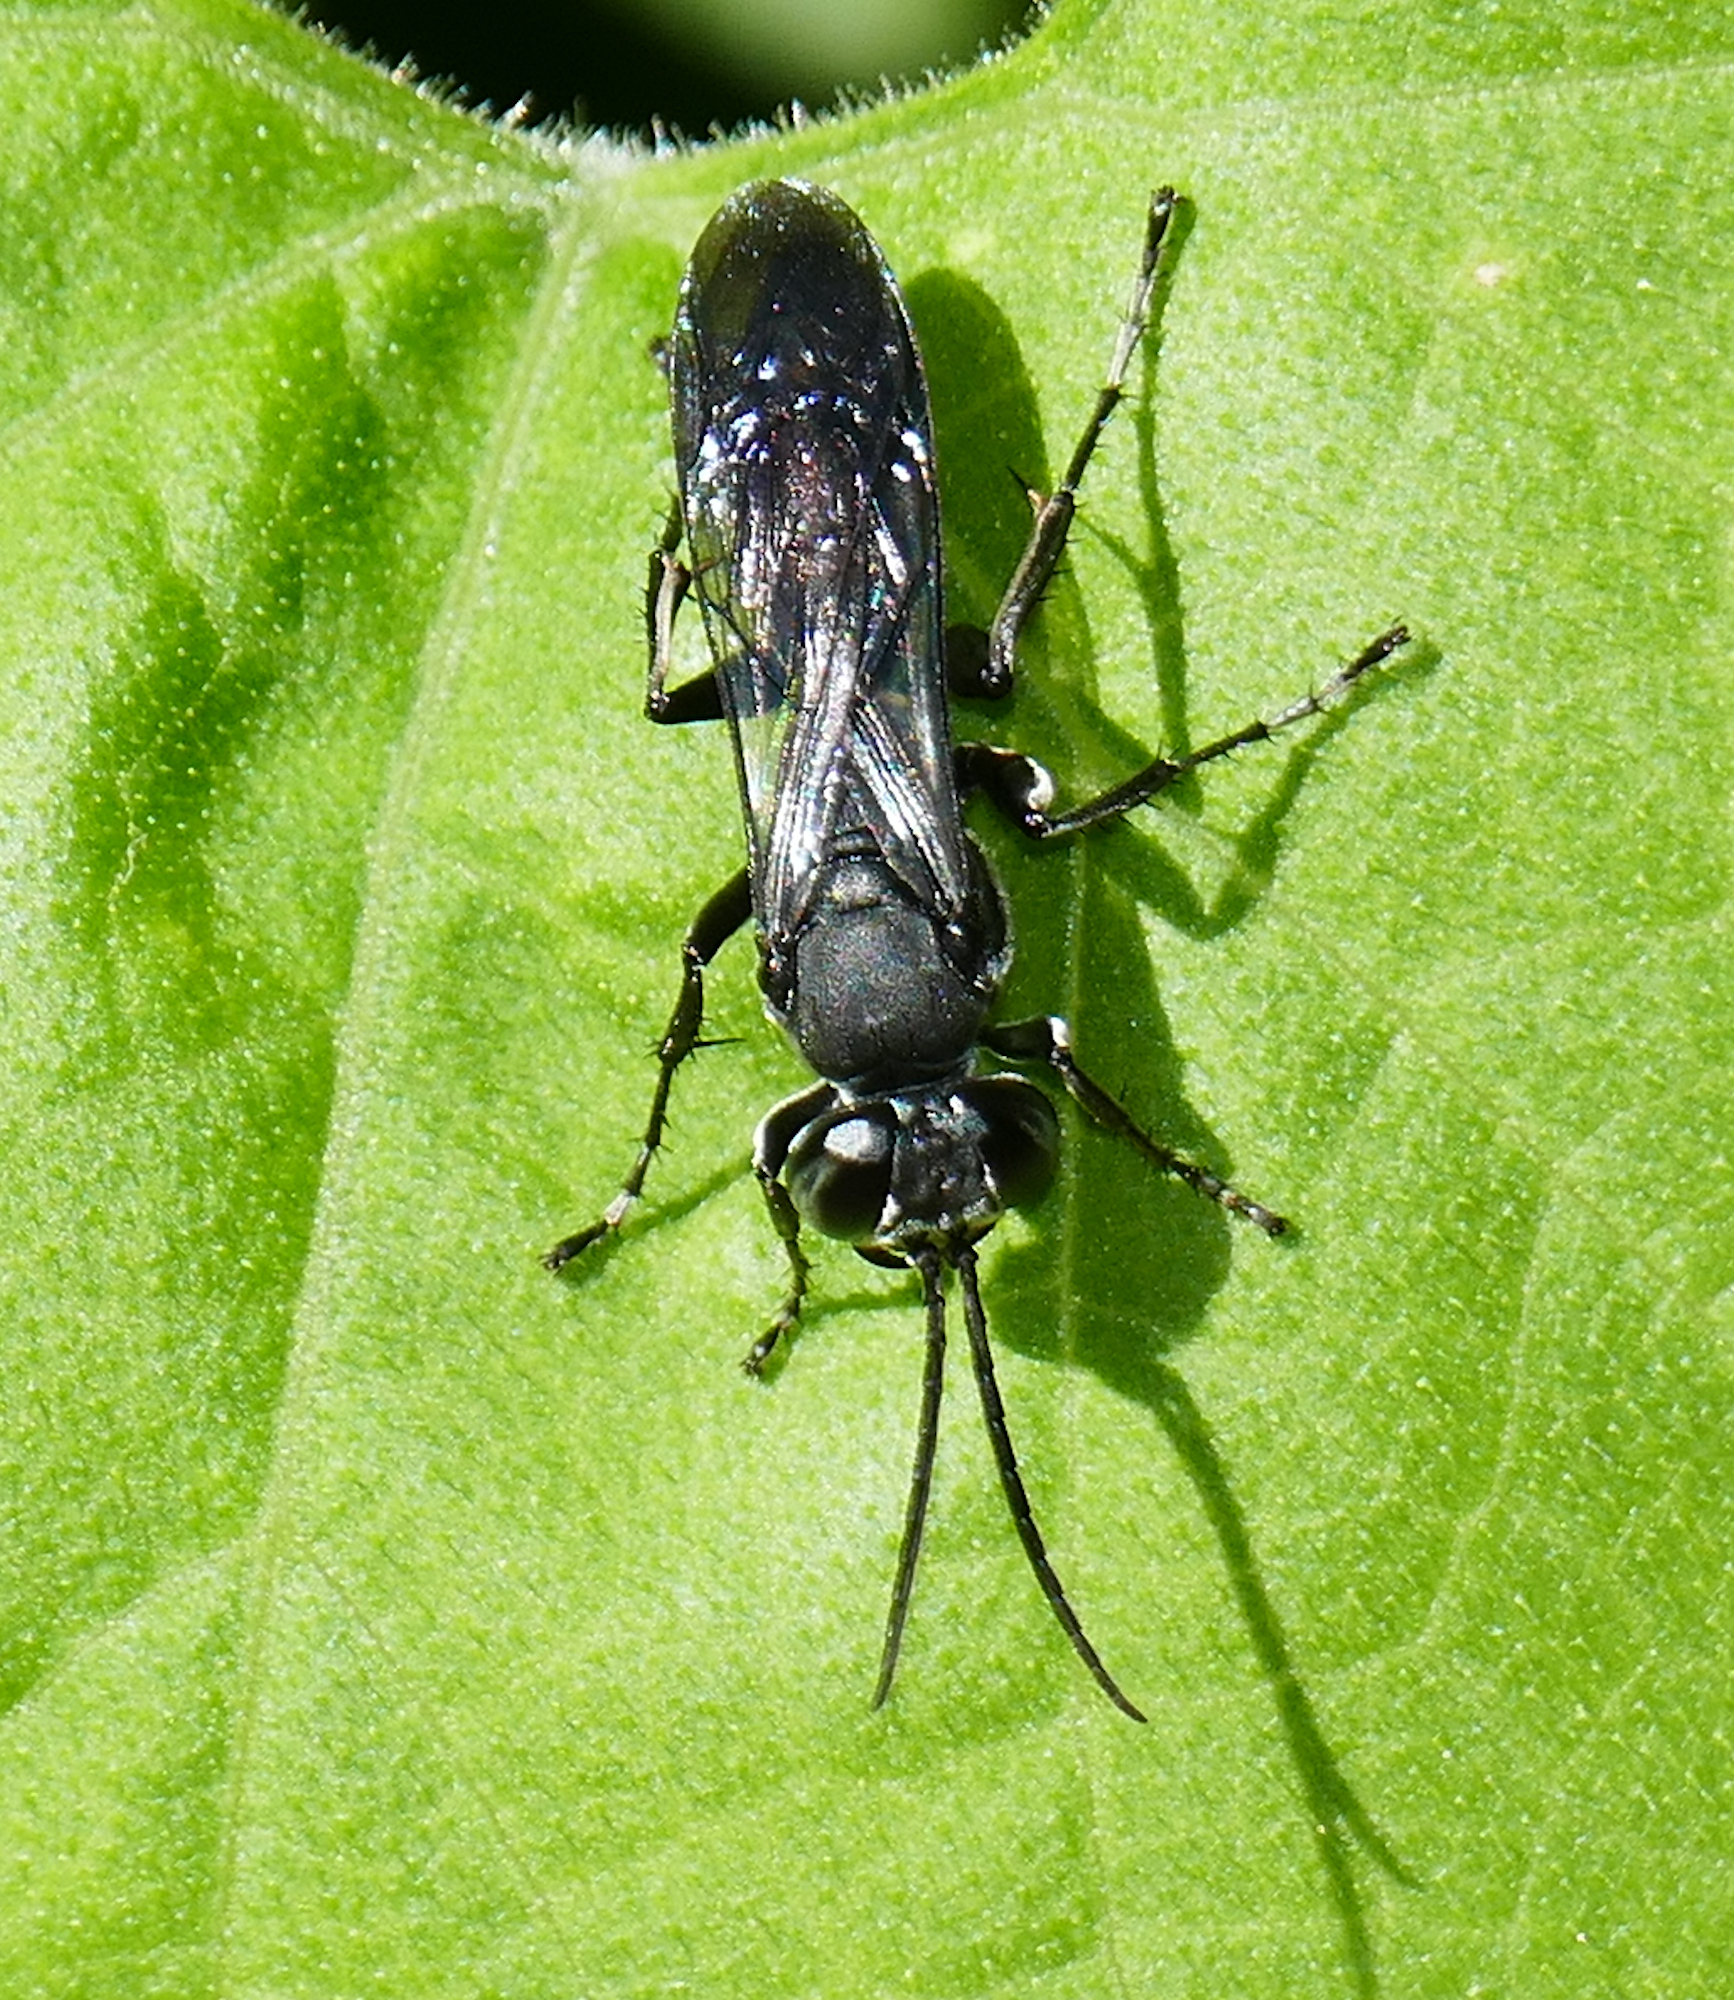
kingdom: Animalia
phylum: Arthropoda
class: Insecta
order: Hymenoptera
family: Crabronidae
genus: Liris
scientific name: Liris
